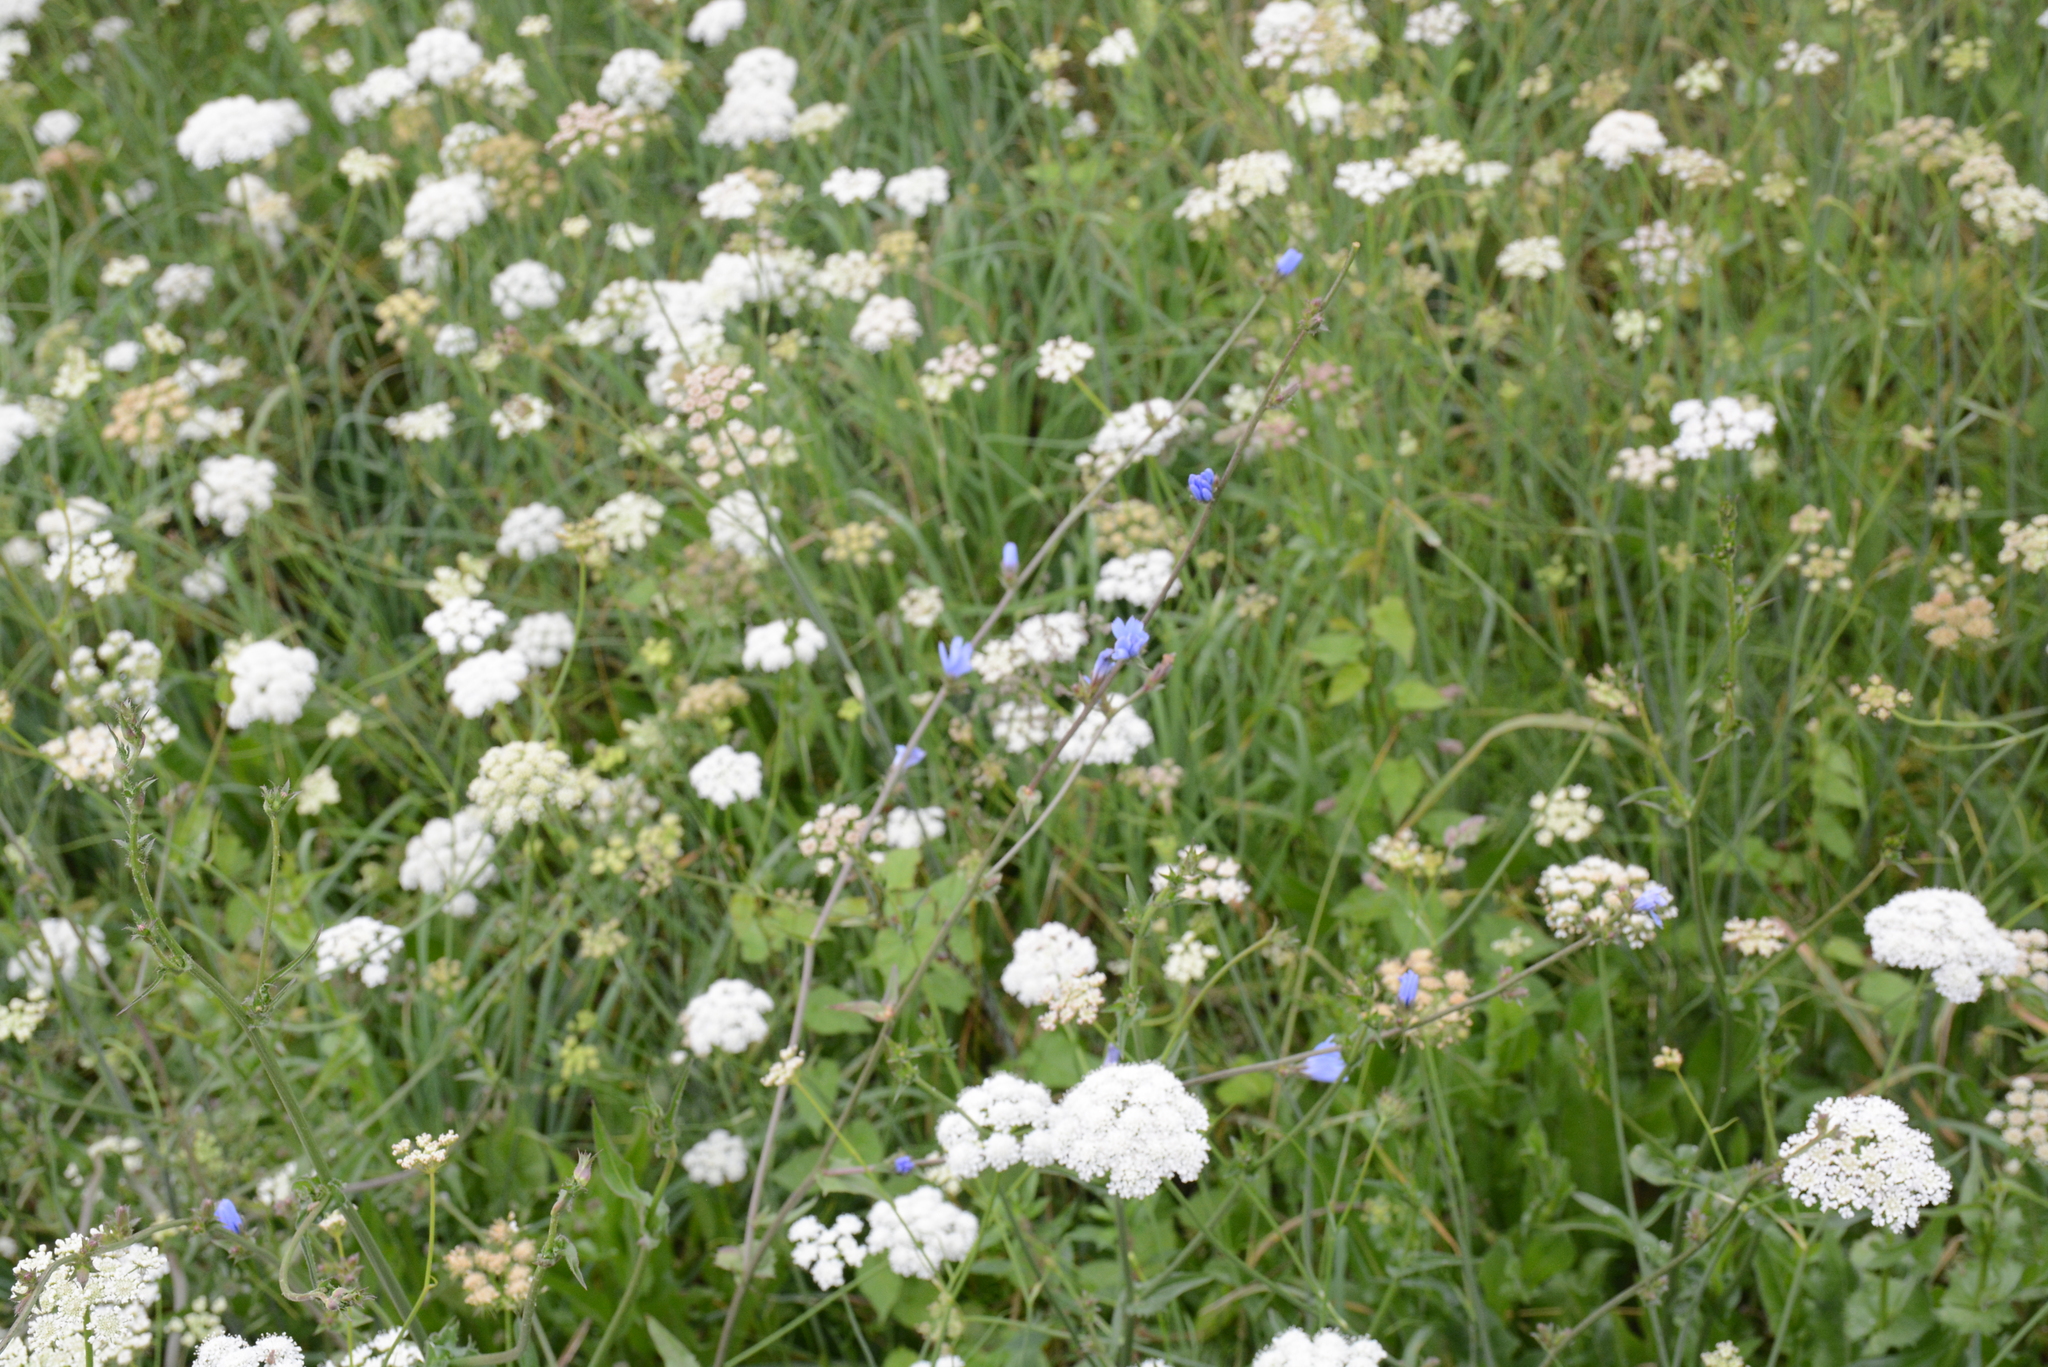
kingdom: Plantae
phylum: Tracheophyta
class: Magnoliopsida
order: Asterales
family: Asteraceae
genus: Cichorium
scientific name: Cichorium intybus
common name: Chicory
